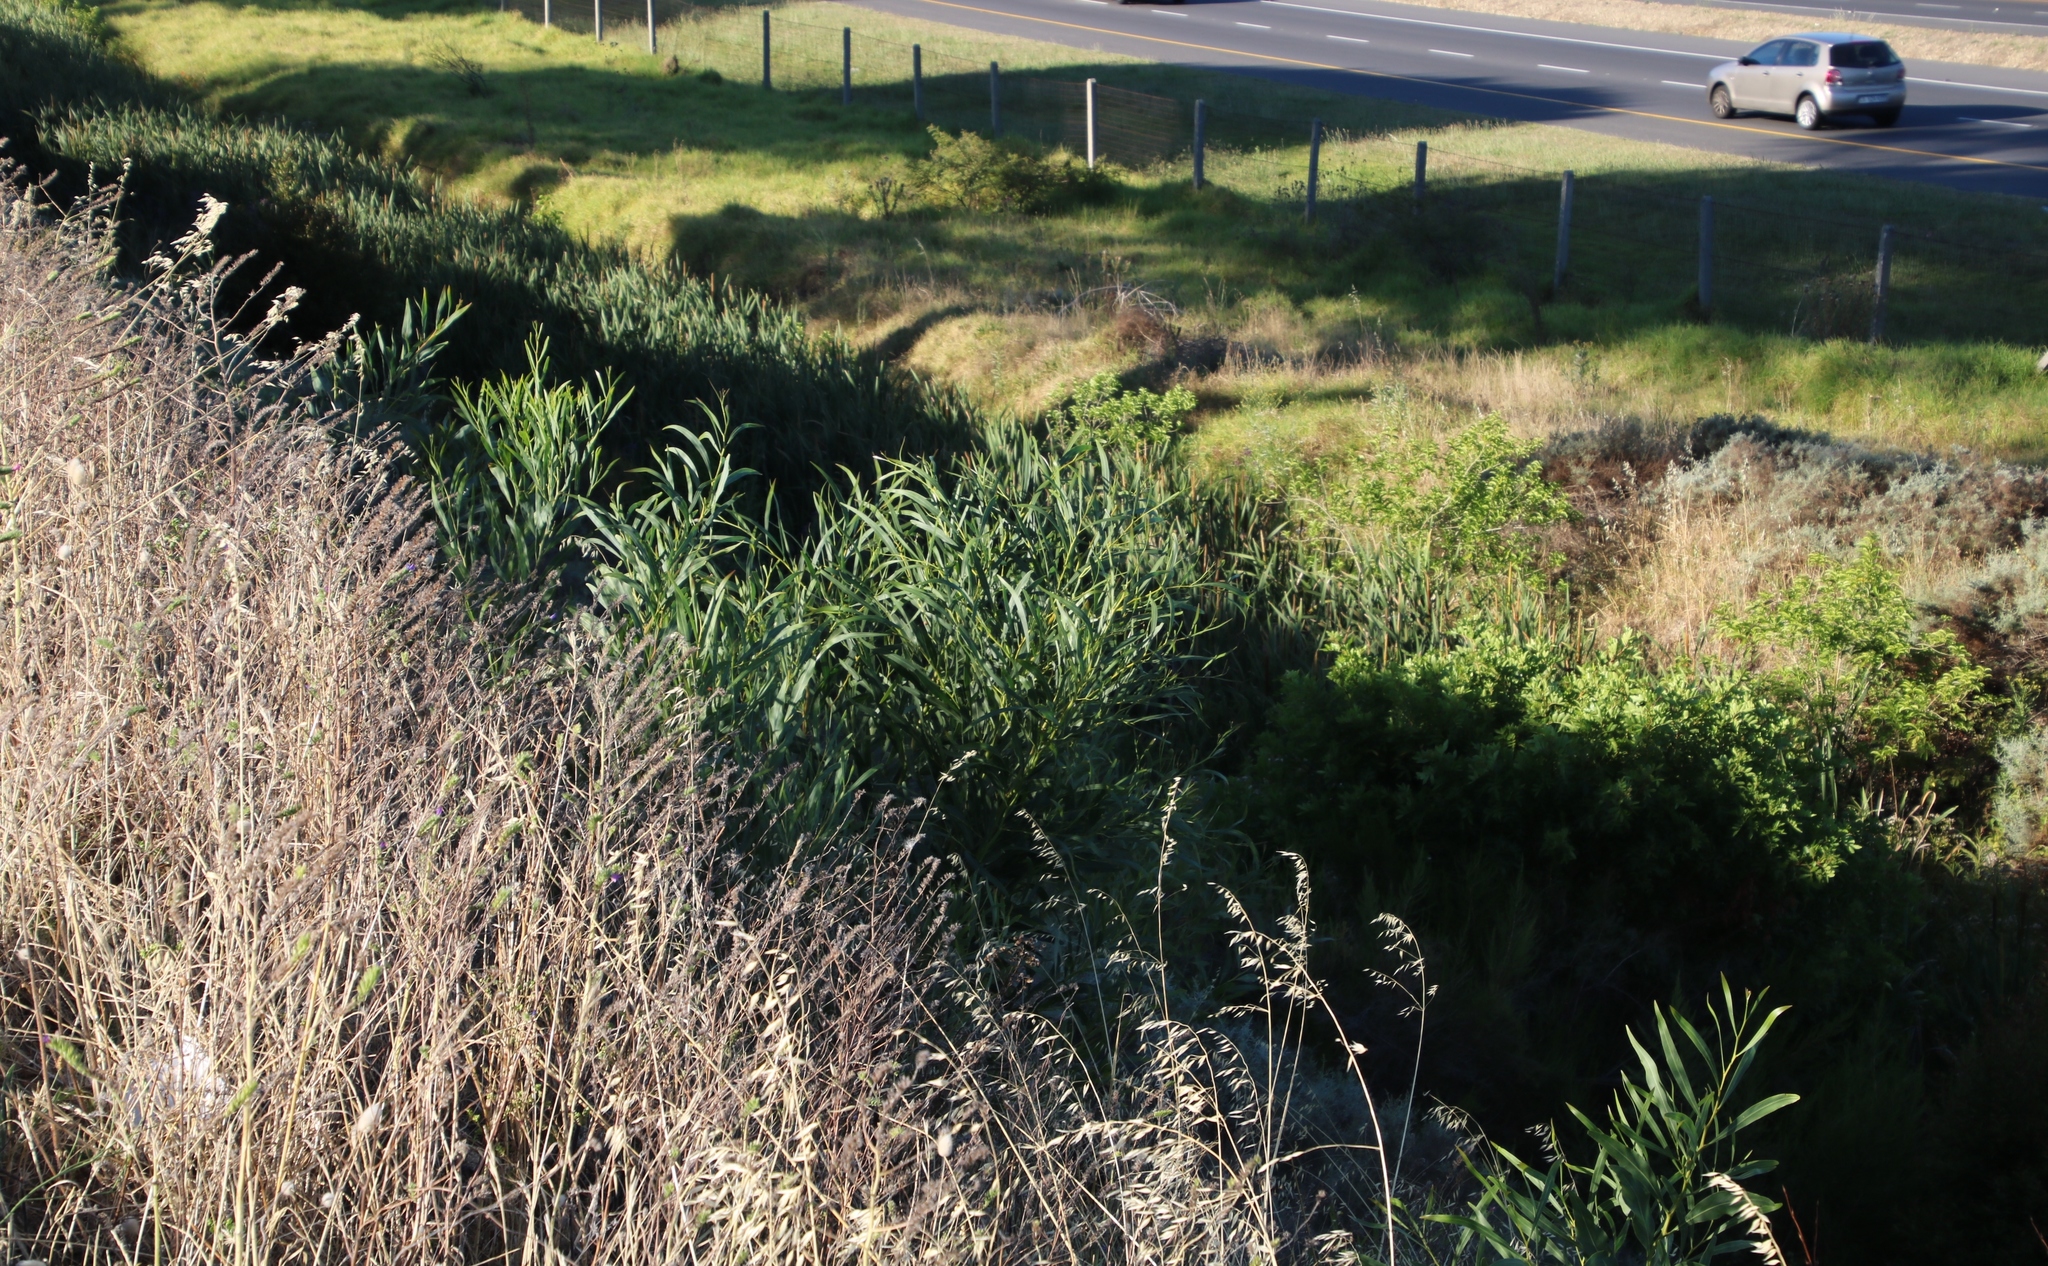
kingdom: Plantae
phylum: Tracheophyta
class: Magnoliopsida
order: Fabales
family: Fabaceae
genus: Acacia
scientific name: Acacia saligna
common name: Orange wattle
